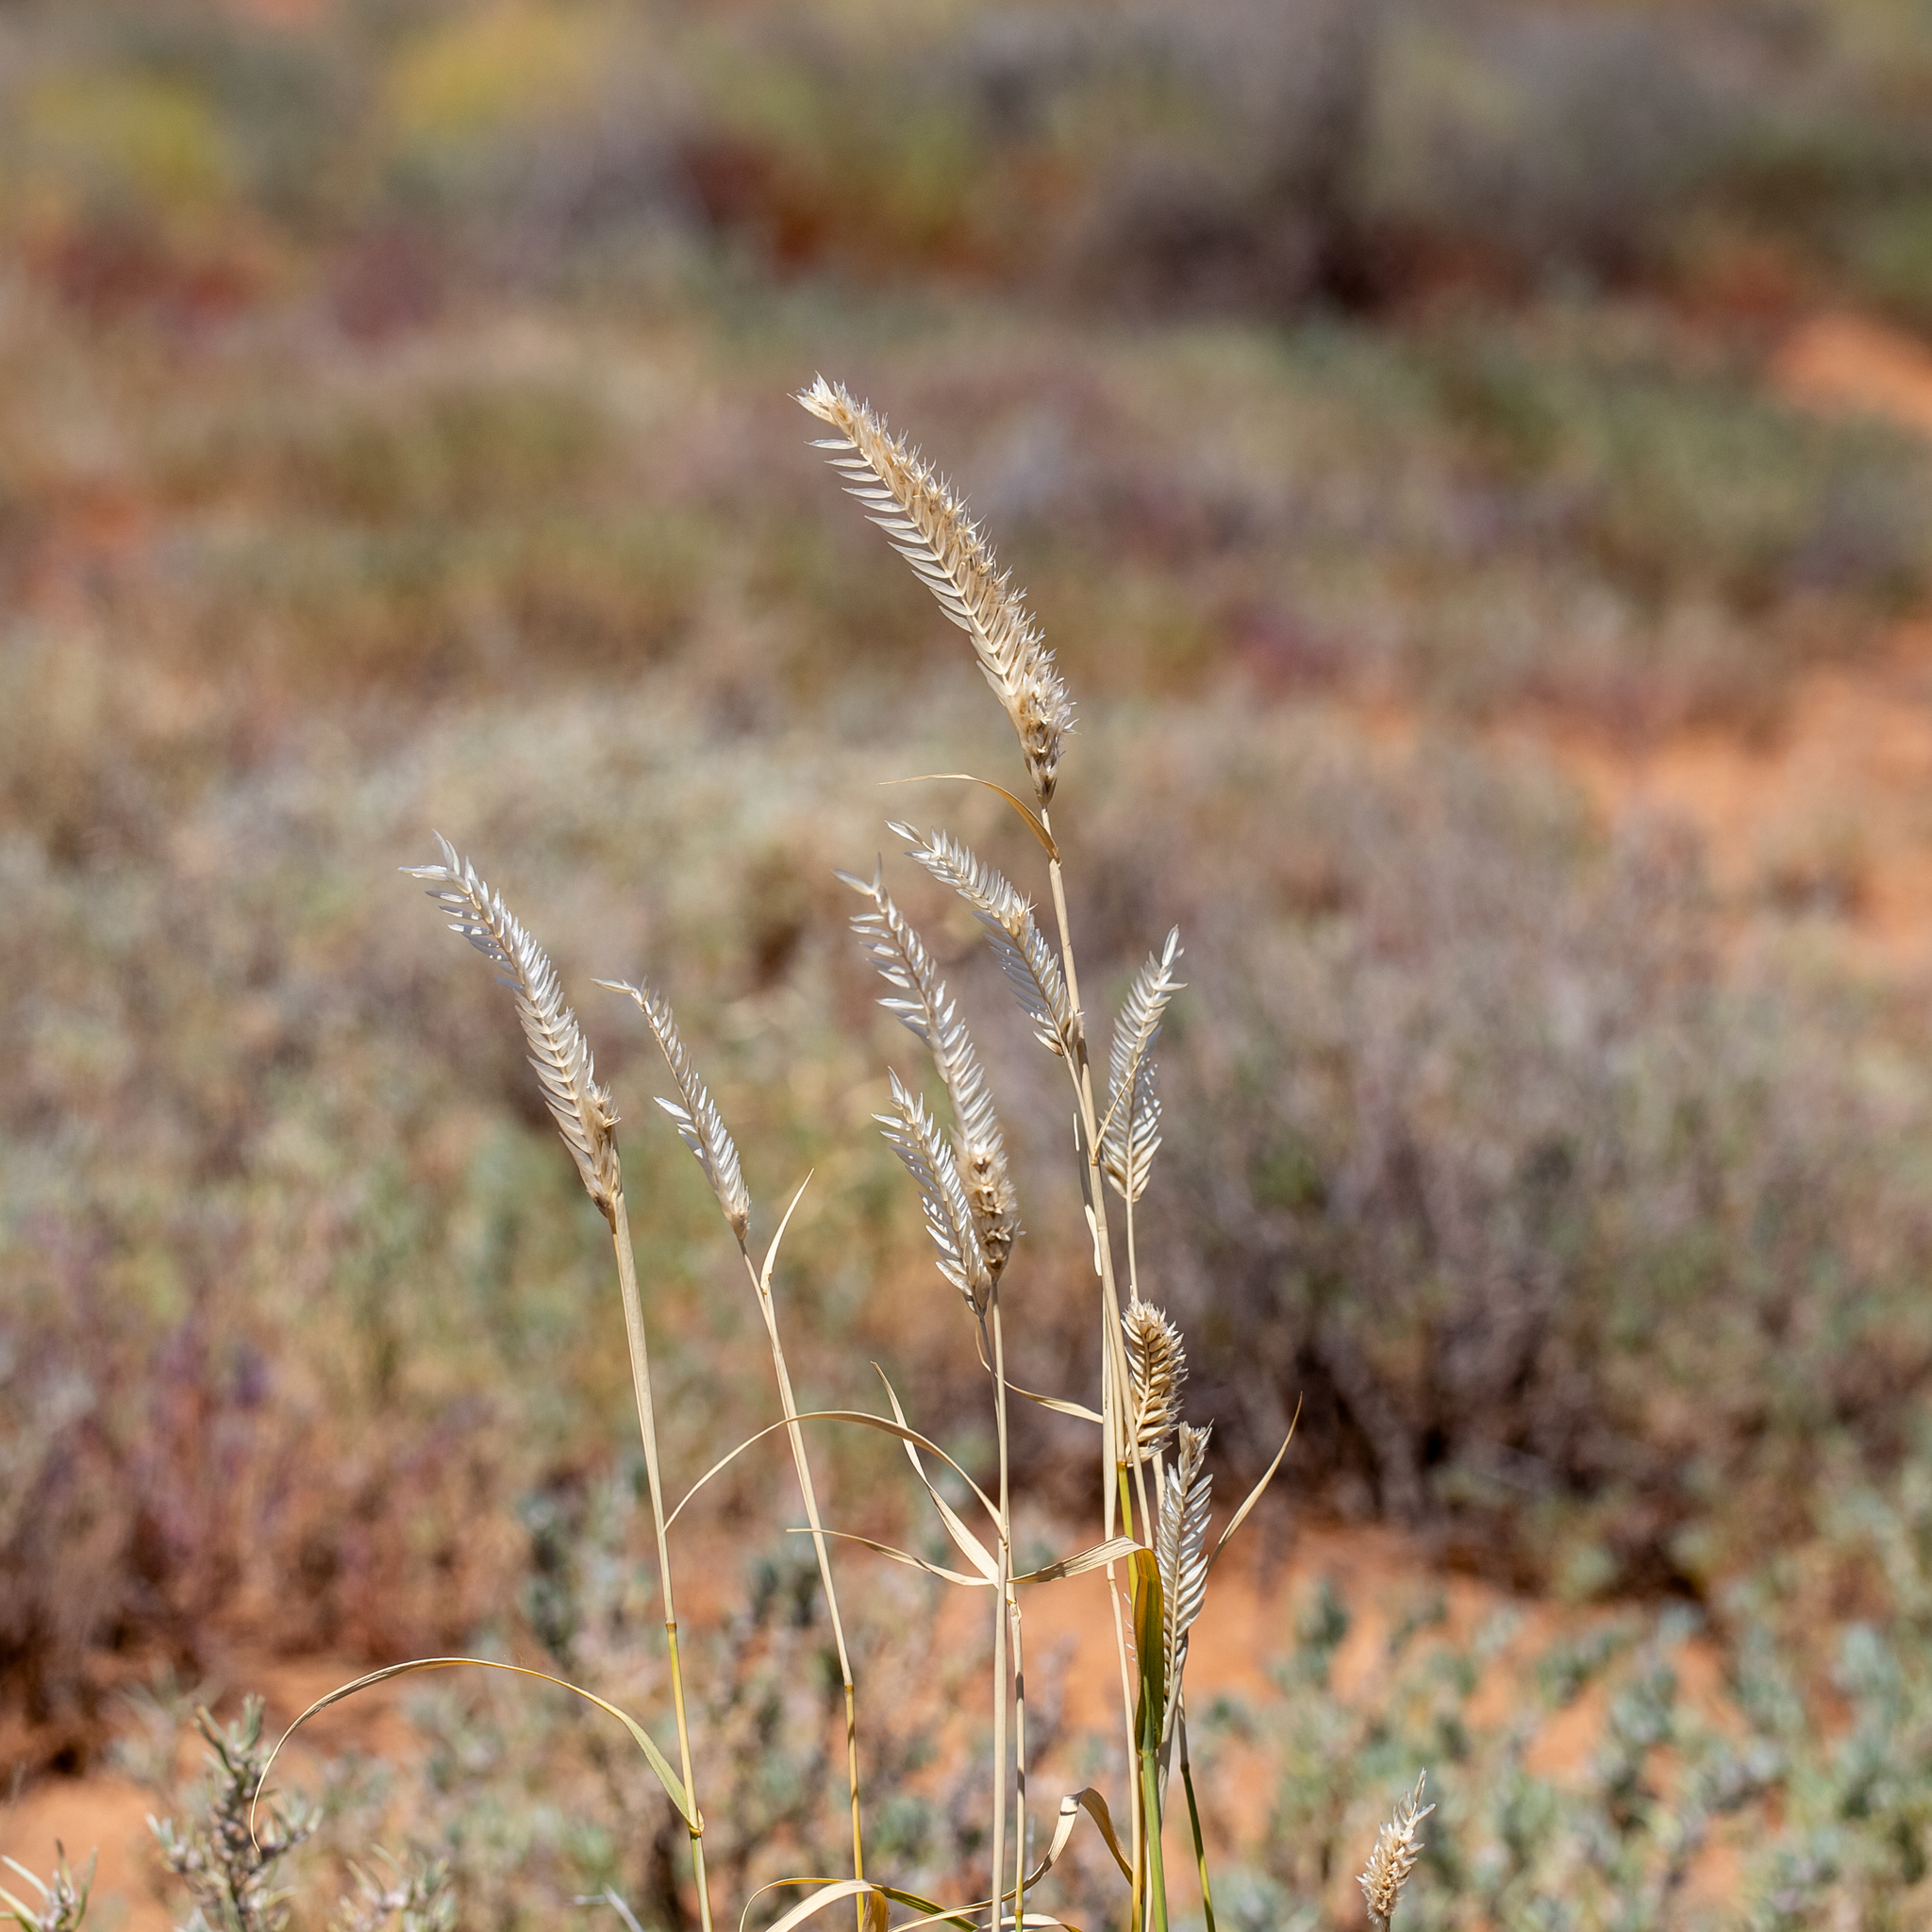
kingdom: Plantae
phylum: Tracheophyta
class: Liliopsida
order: Poales
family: Poaceae
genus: Astrebla
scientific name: Astrebla pectinata
